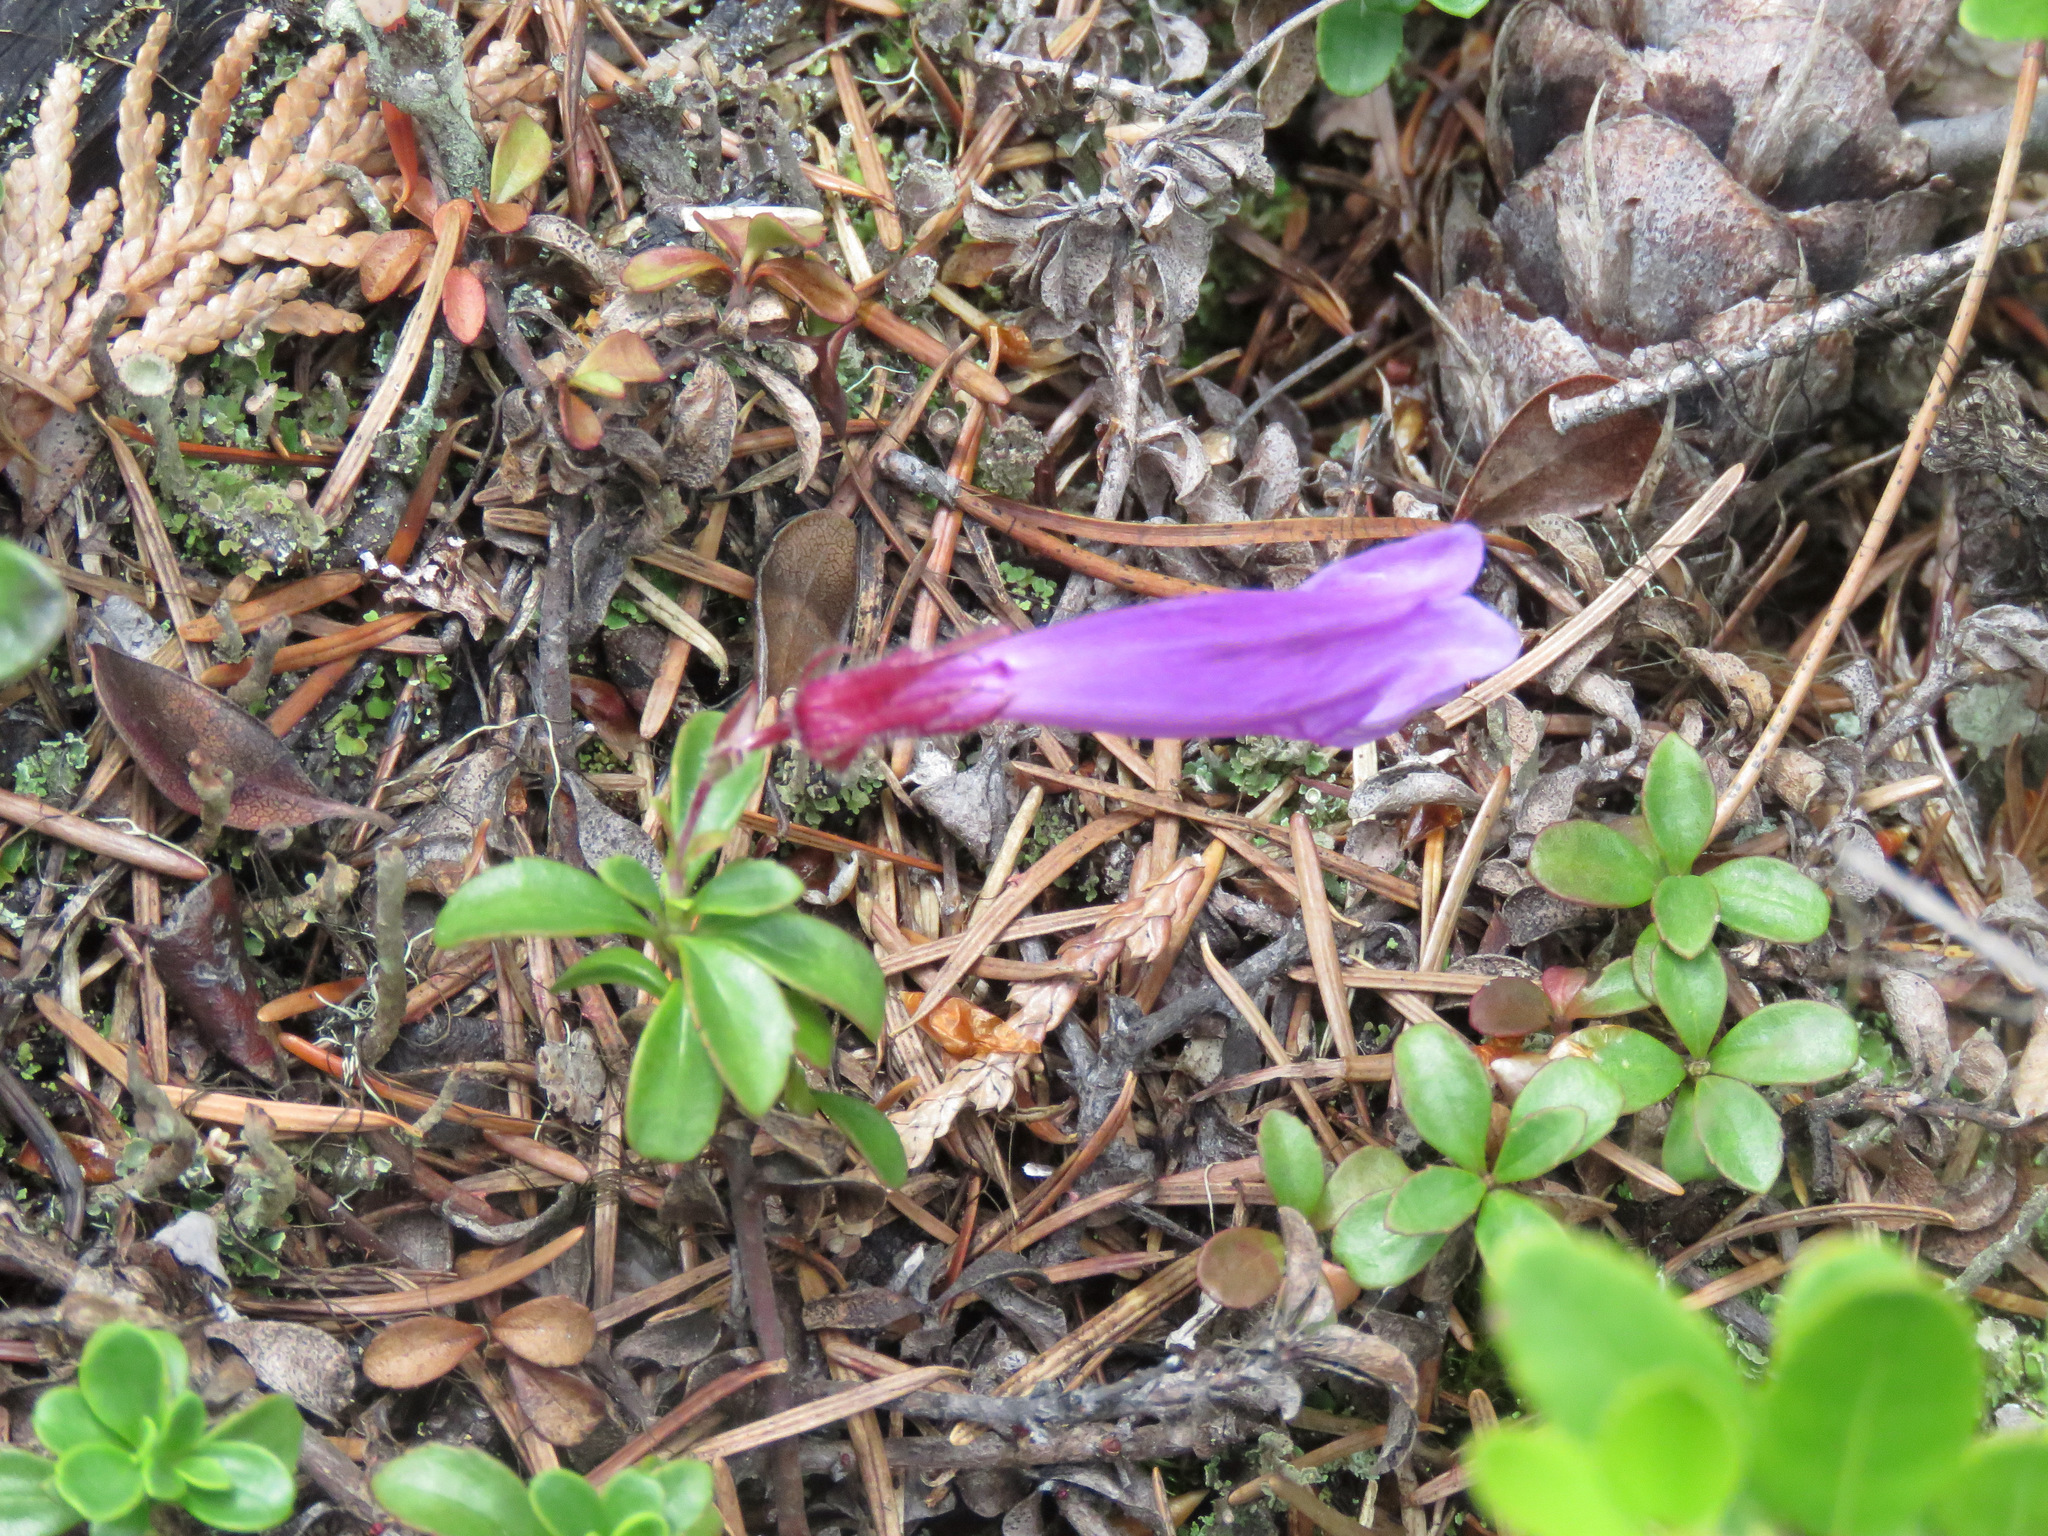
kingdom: Plantae
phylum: Tracheophyta
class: Magnoliopsida
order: Lamiales
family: Plantaginaceae
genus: Penstemon
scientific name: Penstemon davidsonii
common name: Davidson's penstemon
